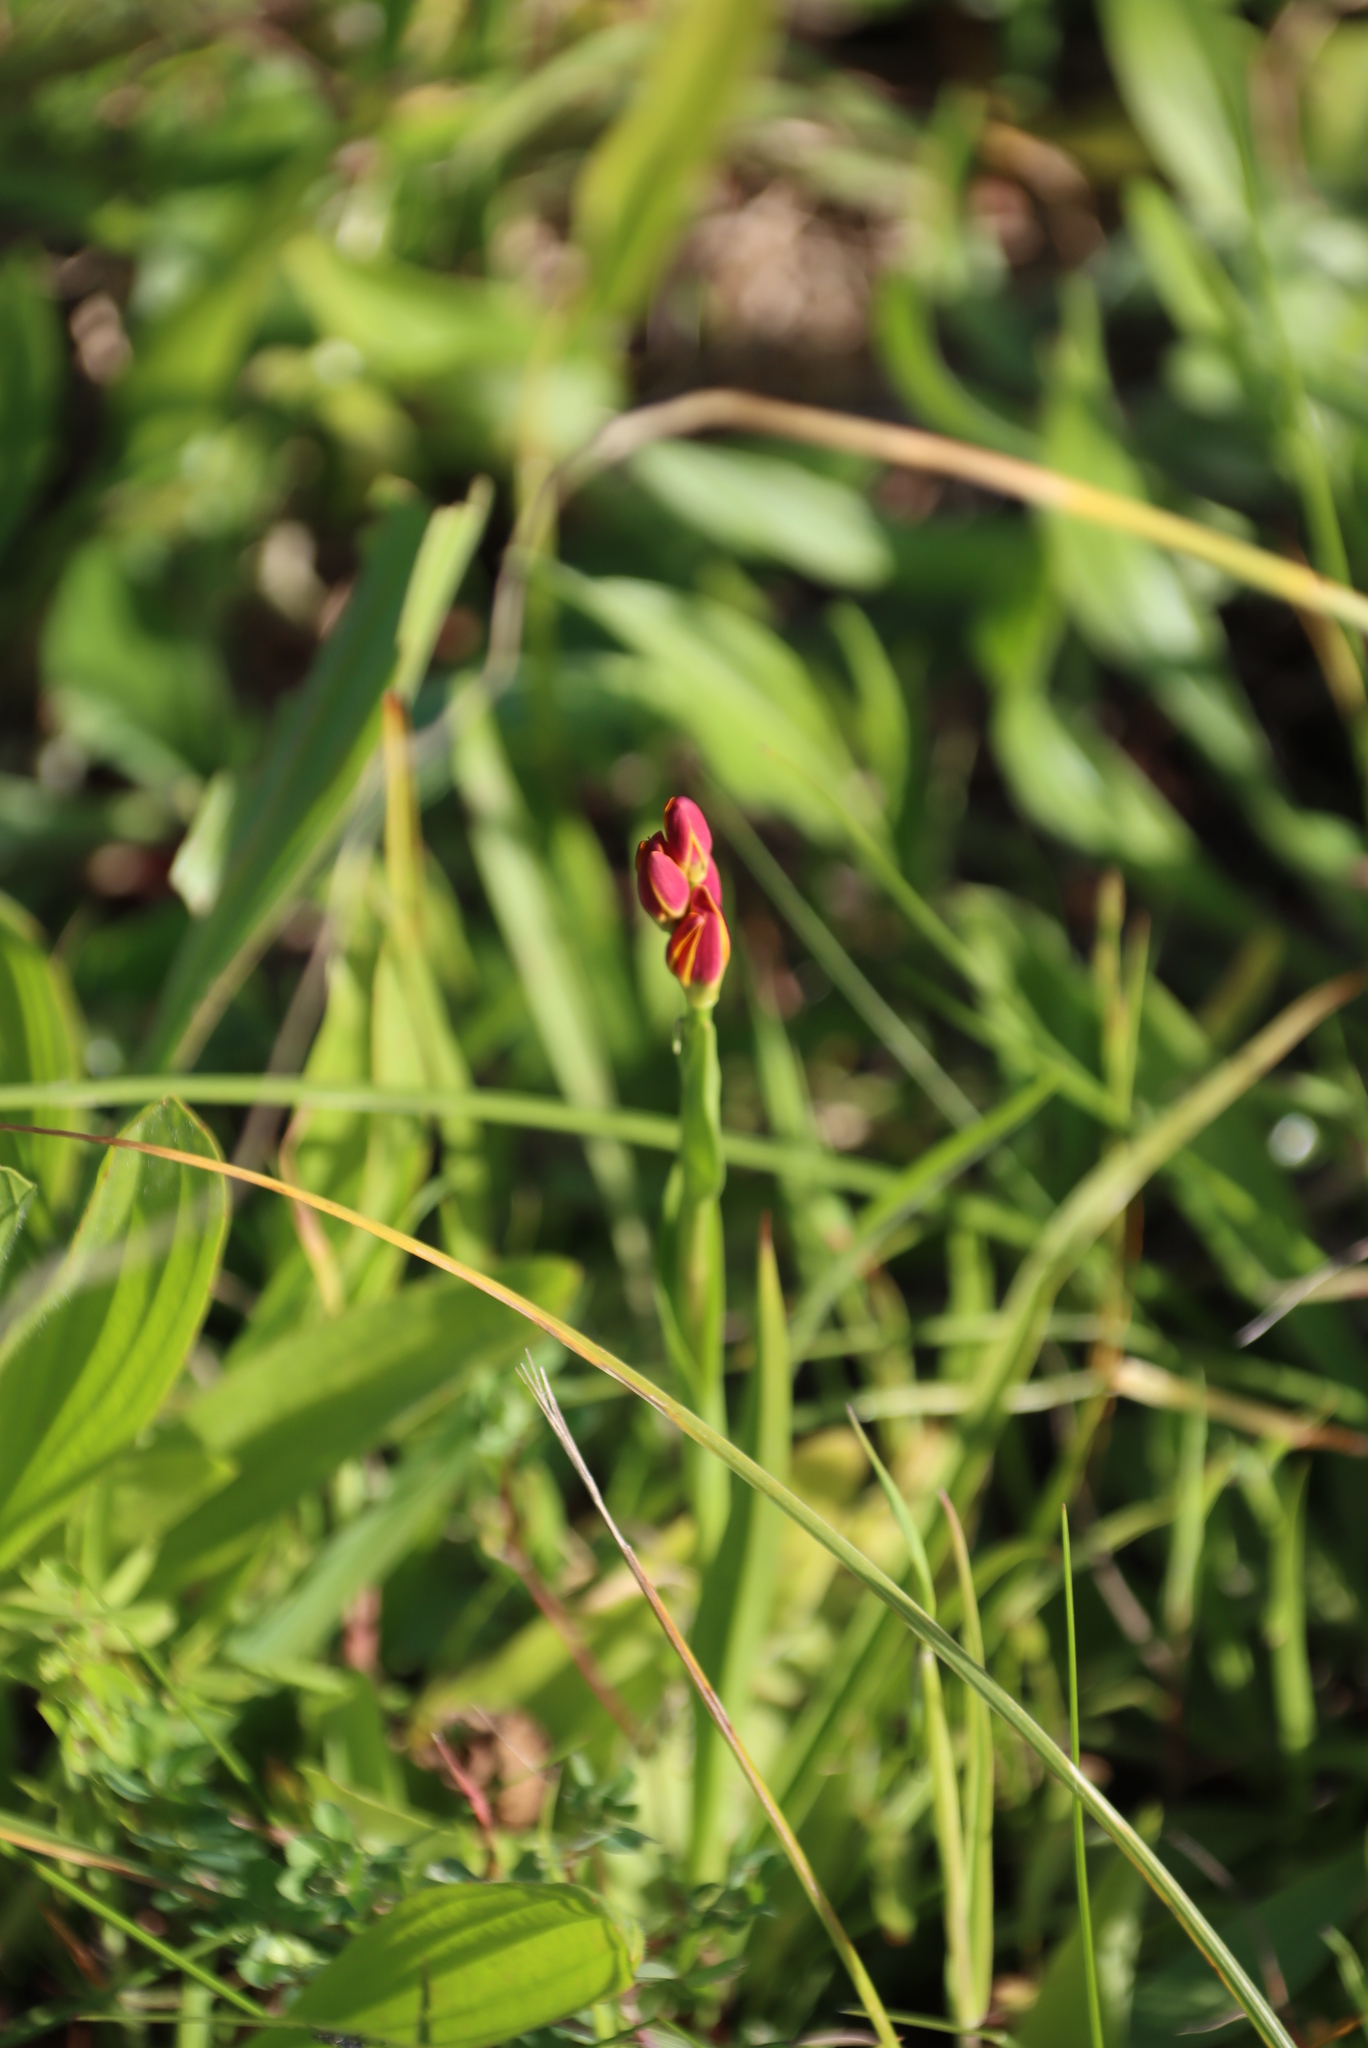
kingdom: Plantae
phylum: Tracheophyta
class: Liliopsida
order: Liliales
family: Colchicaceae
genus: Baeometra
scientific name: Baeometra uniflora
